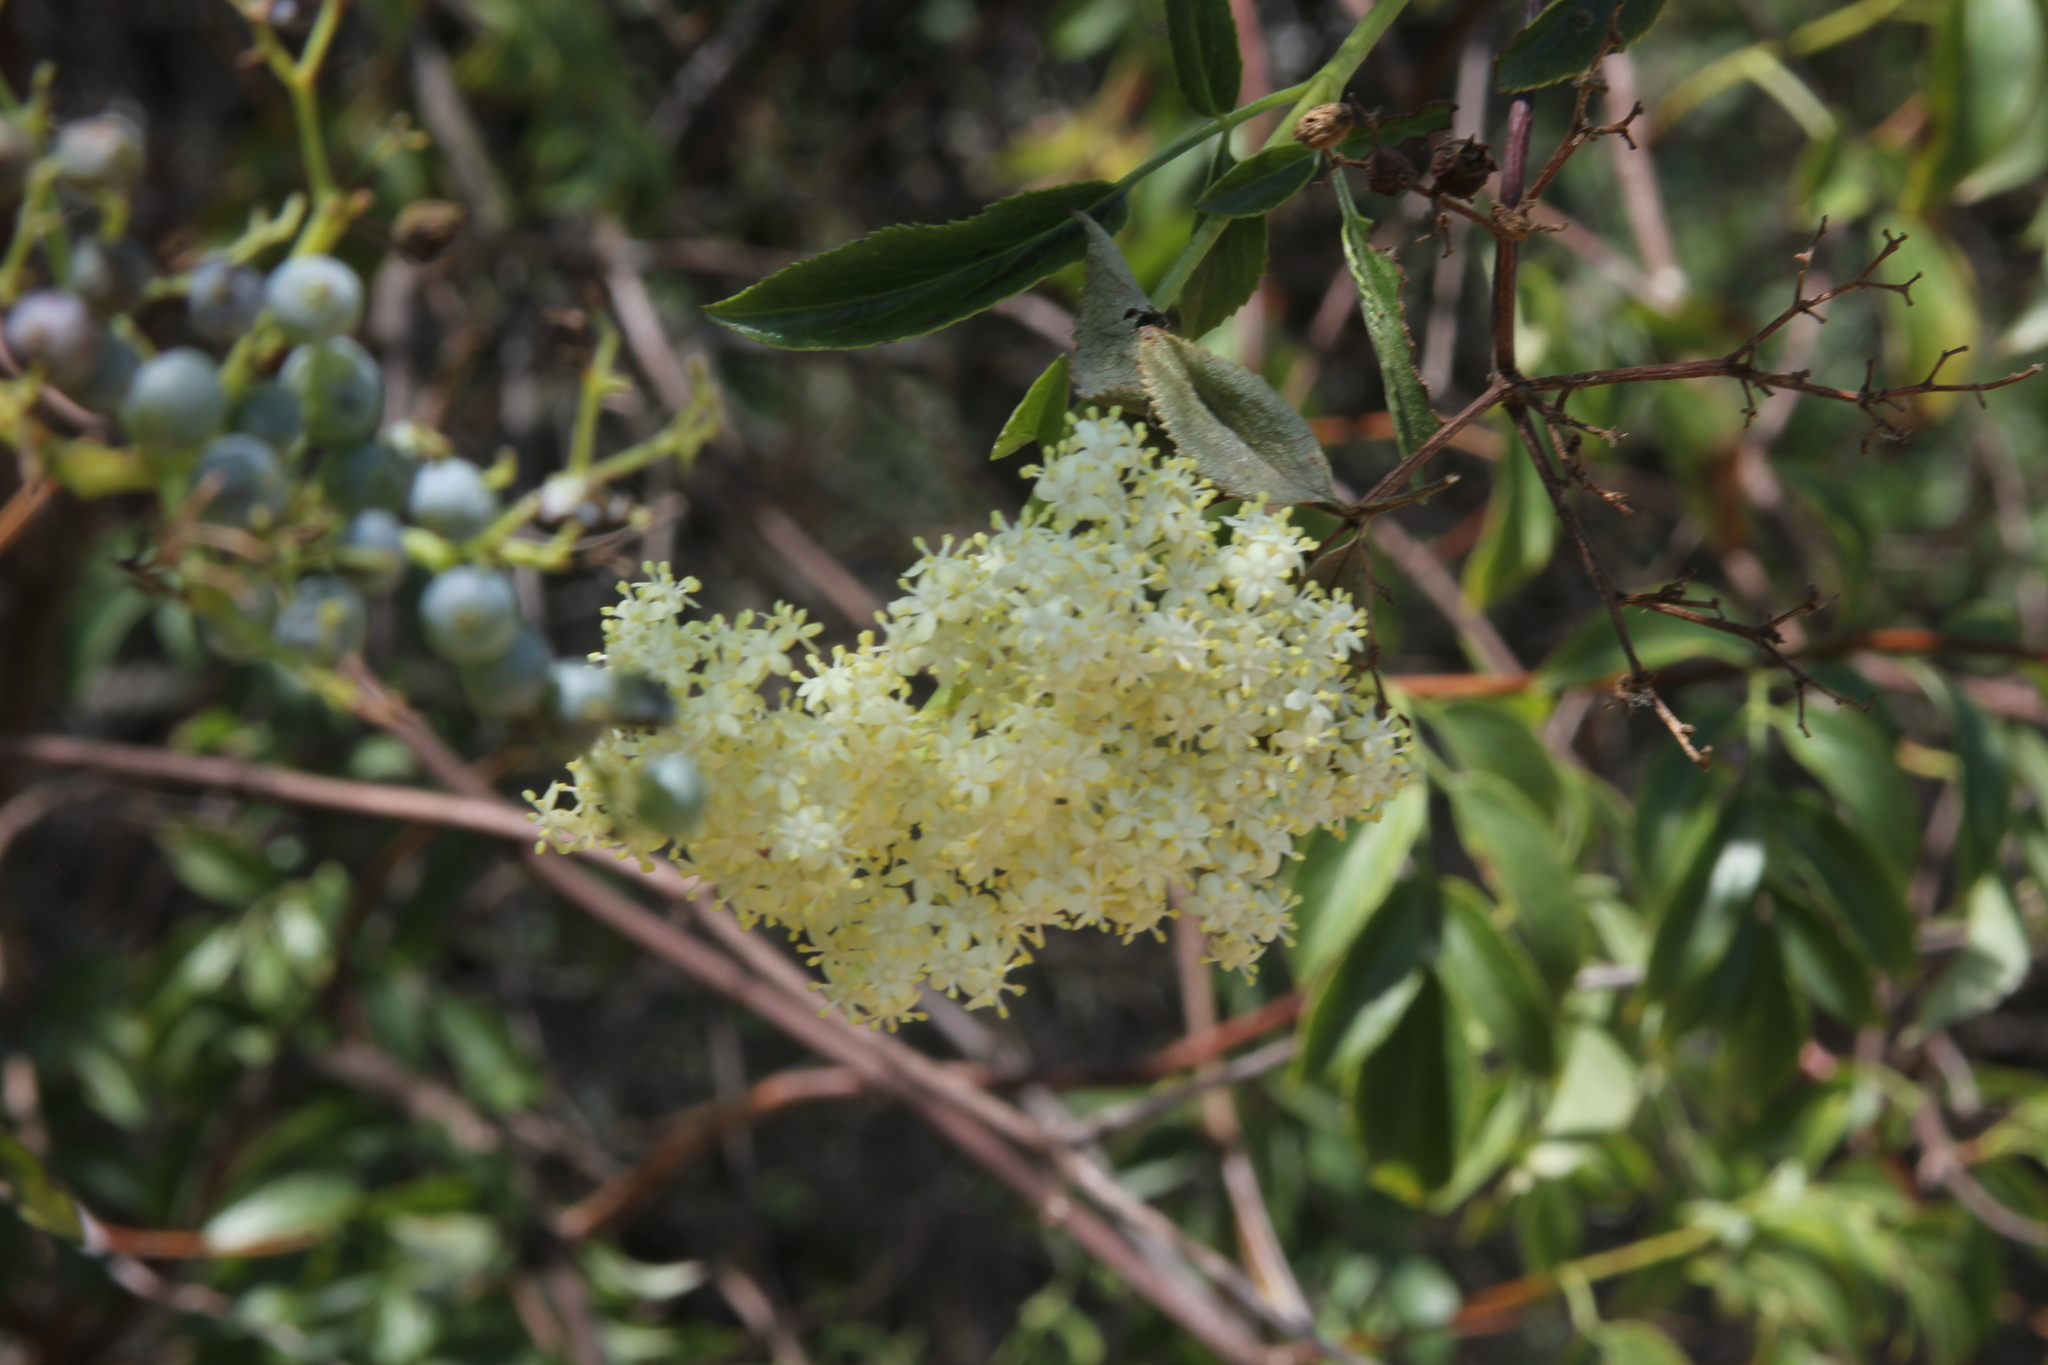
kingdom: Plantae
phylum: Tracheophyta
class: Magnoliopsida
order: Dipsacales
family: Viburnaceae
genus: Sambucus
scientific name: Sambucus cerulea
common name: Blue elder
